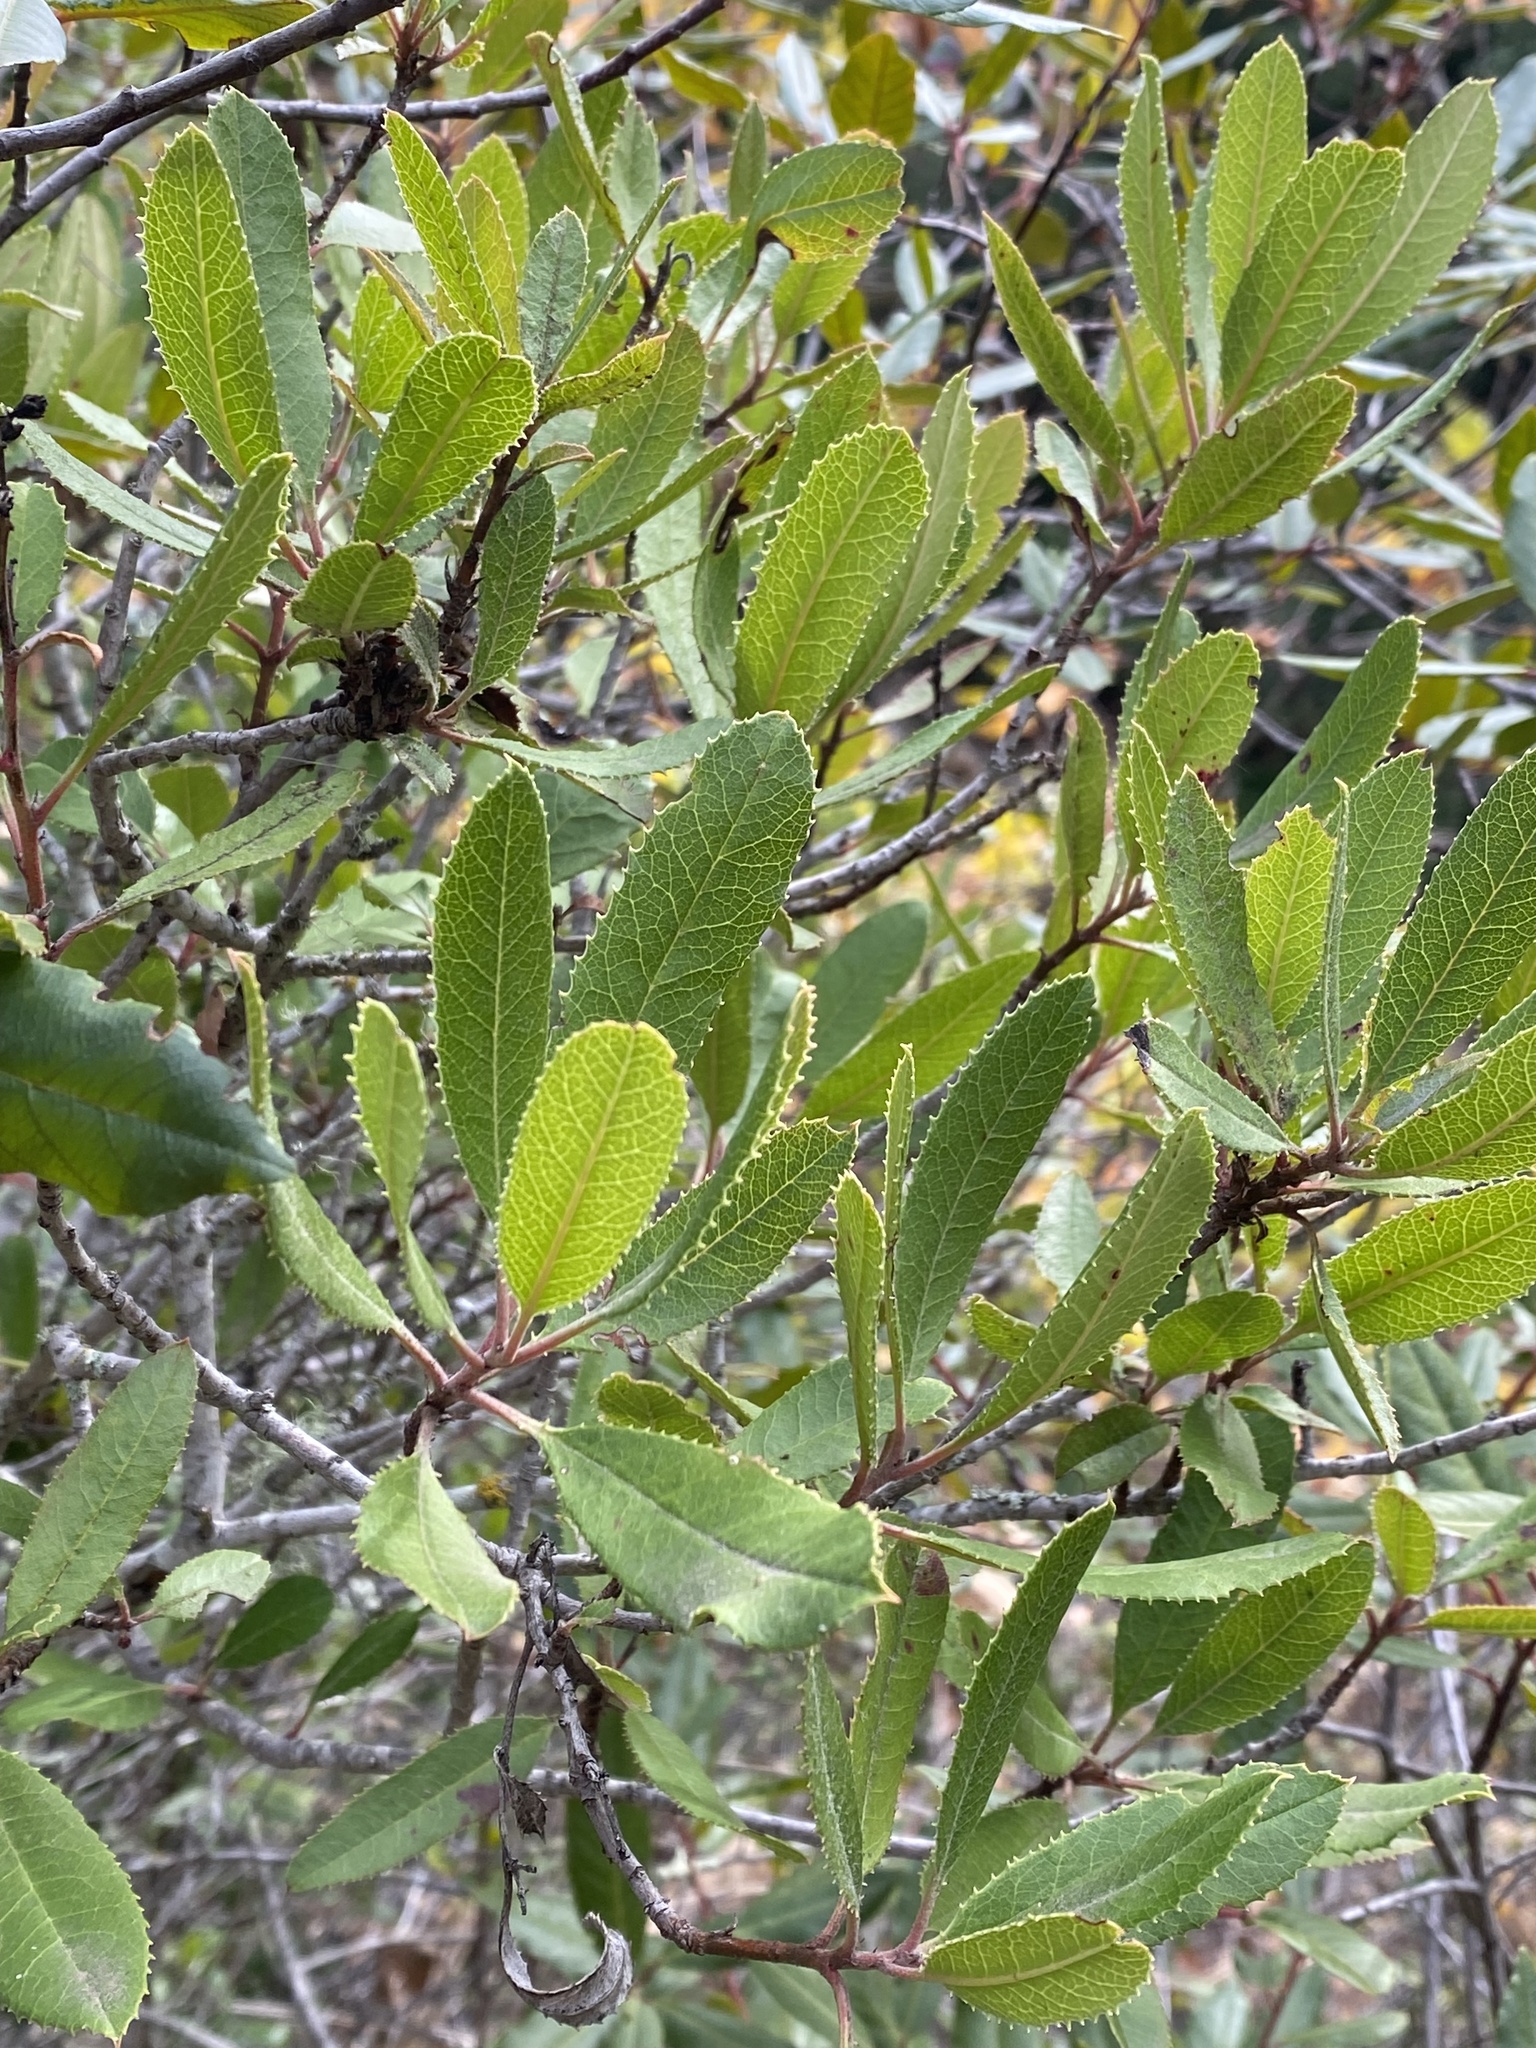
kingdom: Plantae
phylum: Tracheophyta
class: Magnoliopsida
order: Rosales
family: Rosaceae
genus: Heteromeles
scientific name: Heteromeles arbutifolia
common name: California-holly
